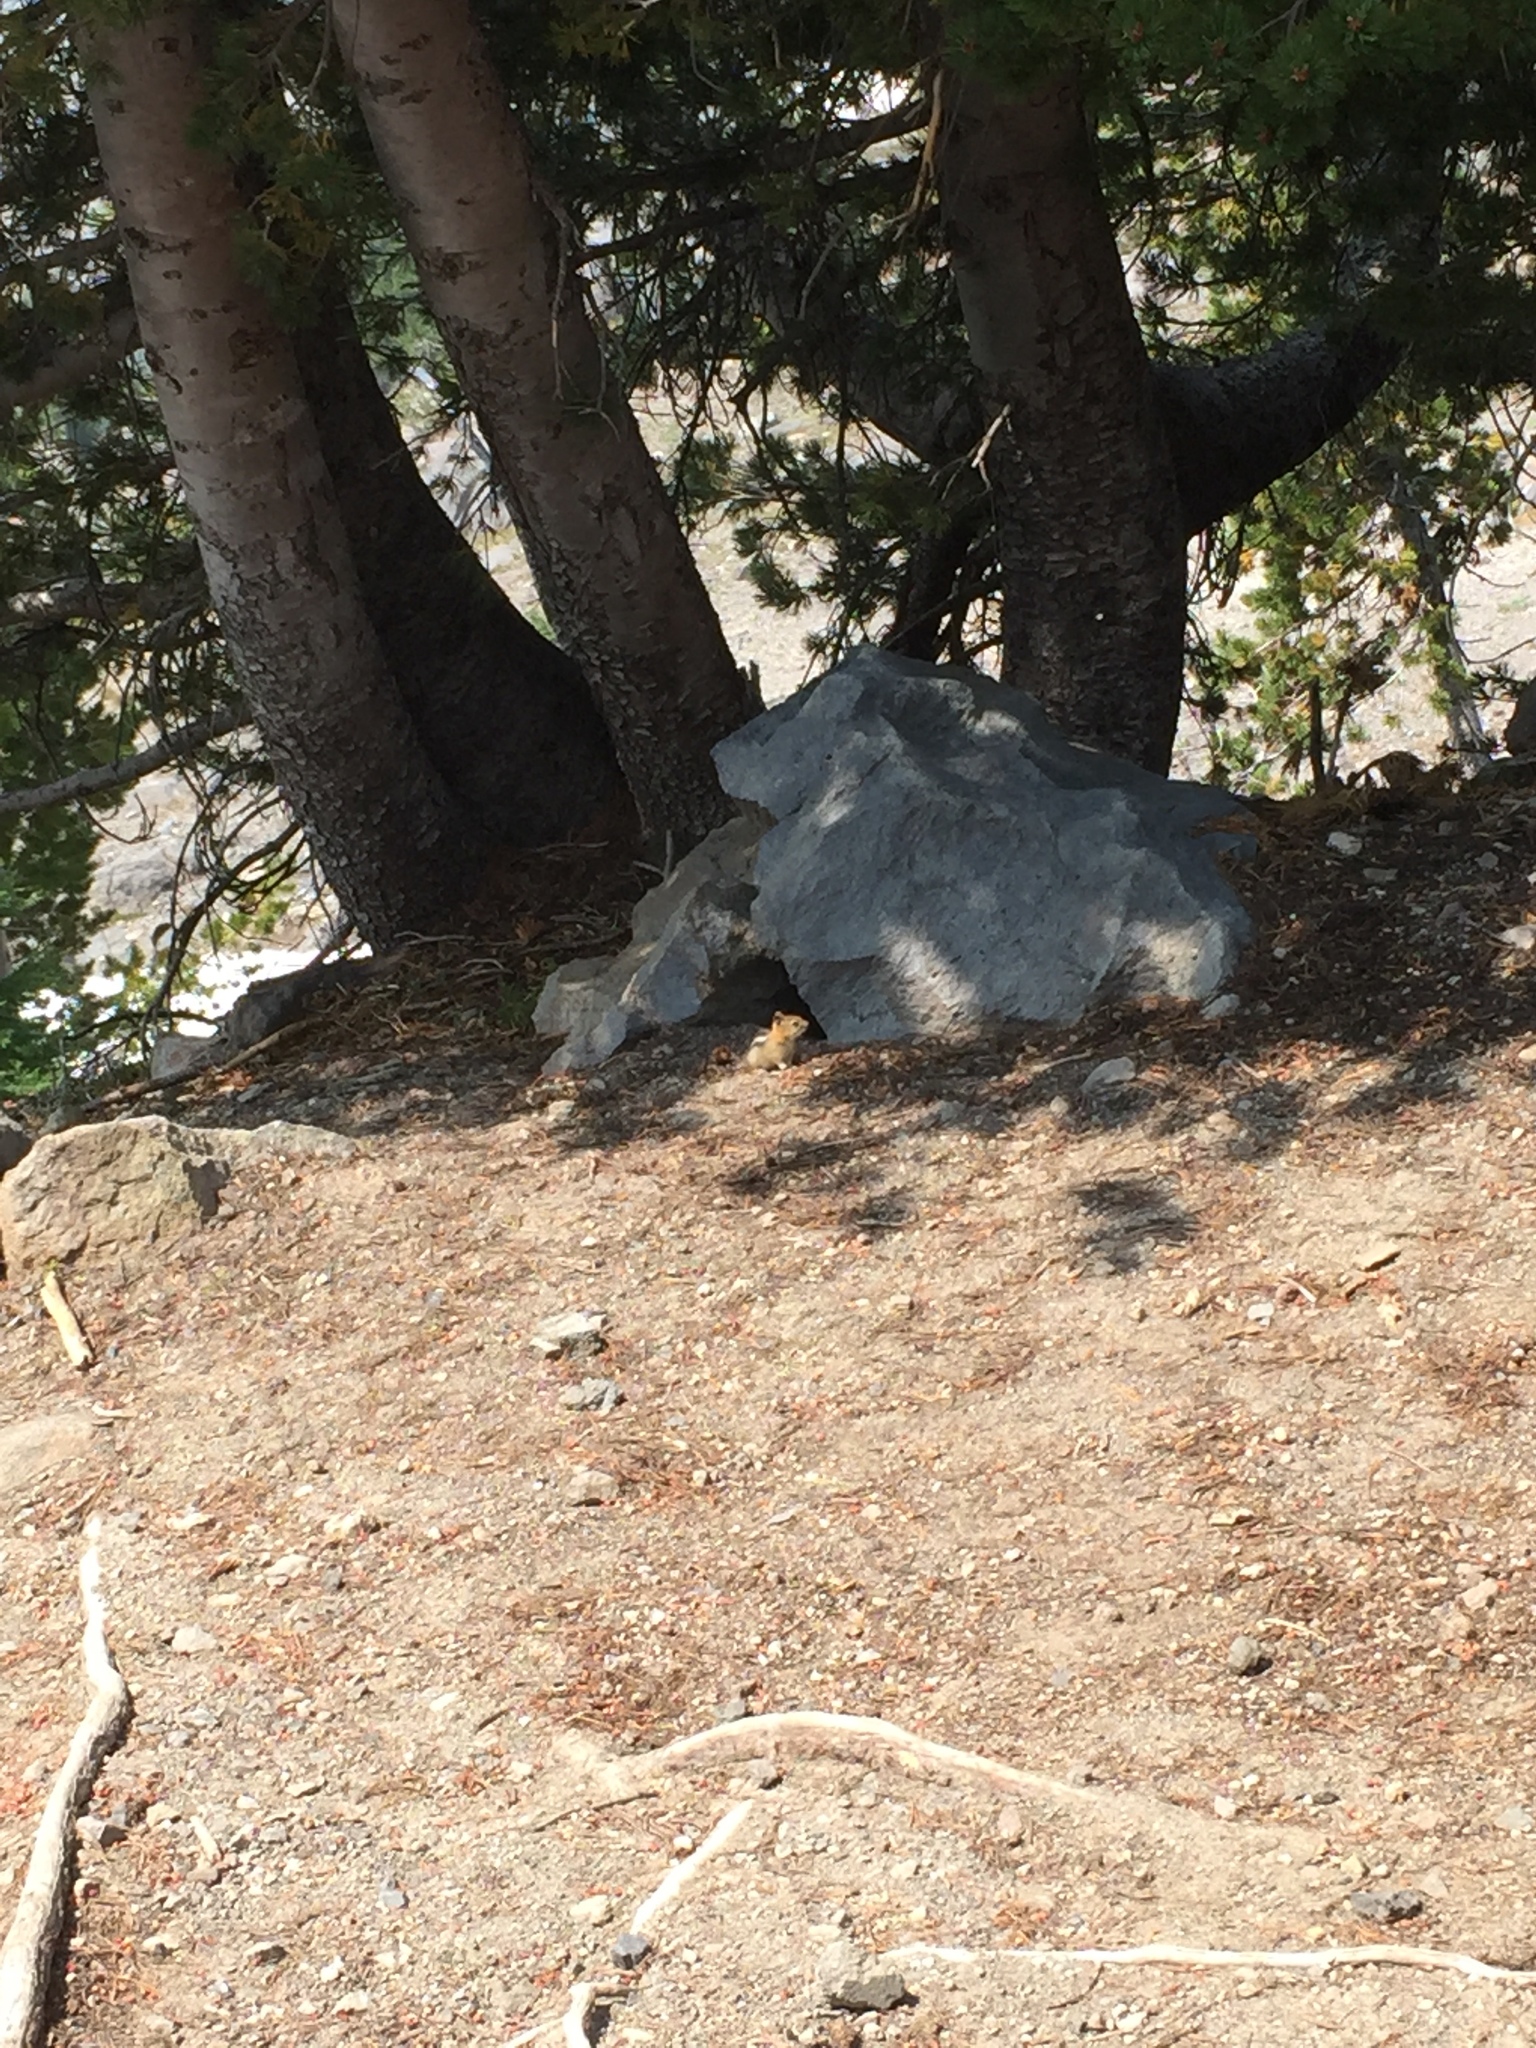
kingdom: Animalia
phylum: Chordata
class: Mammalia
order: Rodentia
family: Sciuridae
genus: Callospermophilus
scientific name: Callospermophilus lateralis
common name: Golden-mantled ground squirrel
